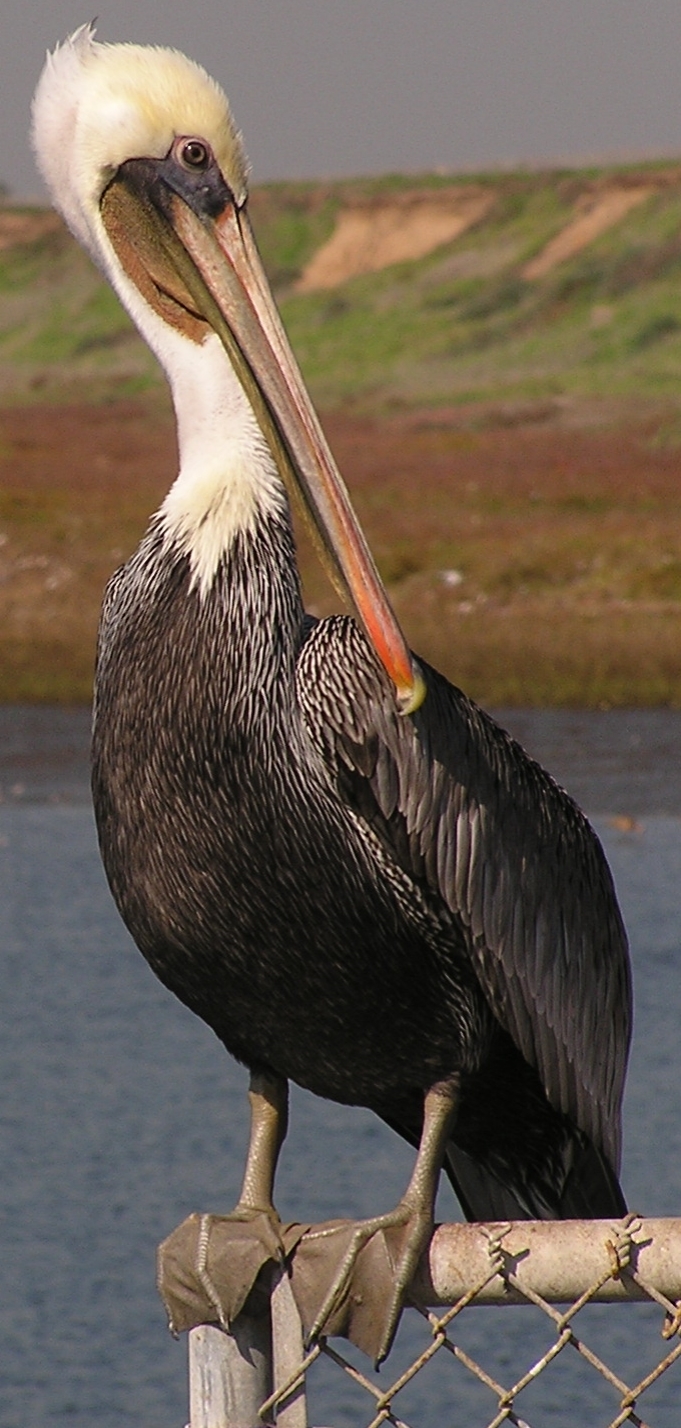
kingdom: Animalia
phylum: Chordata
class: Aves
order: Pelecaniformes
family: Pelecanidae
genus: Pelecanus
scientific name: Pelecanus occidentalis
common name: Brown pelican
